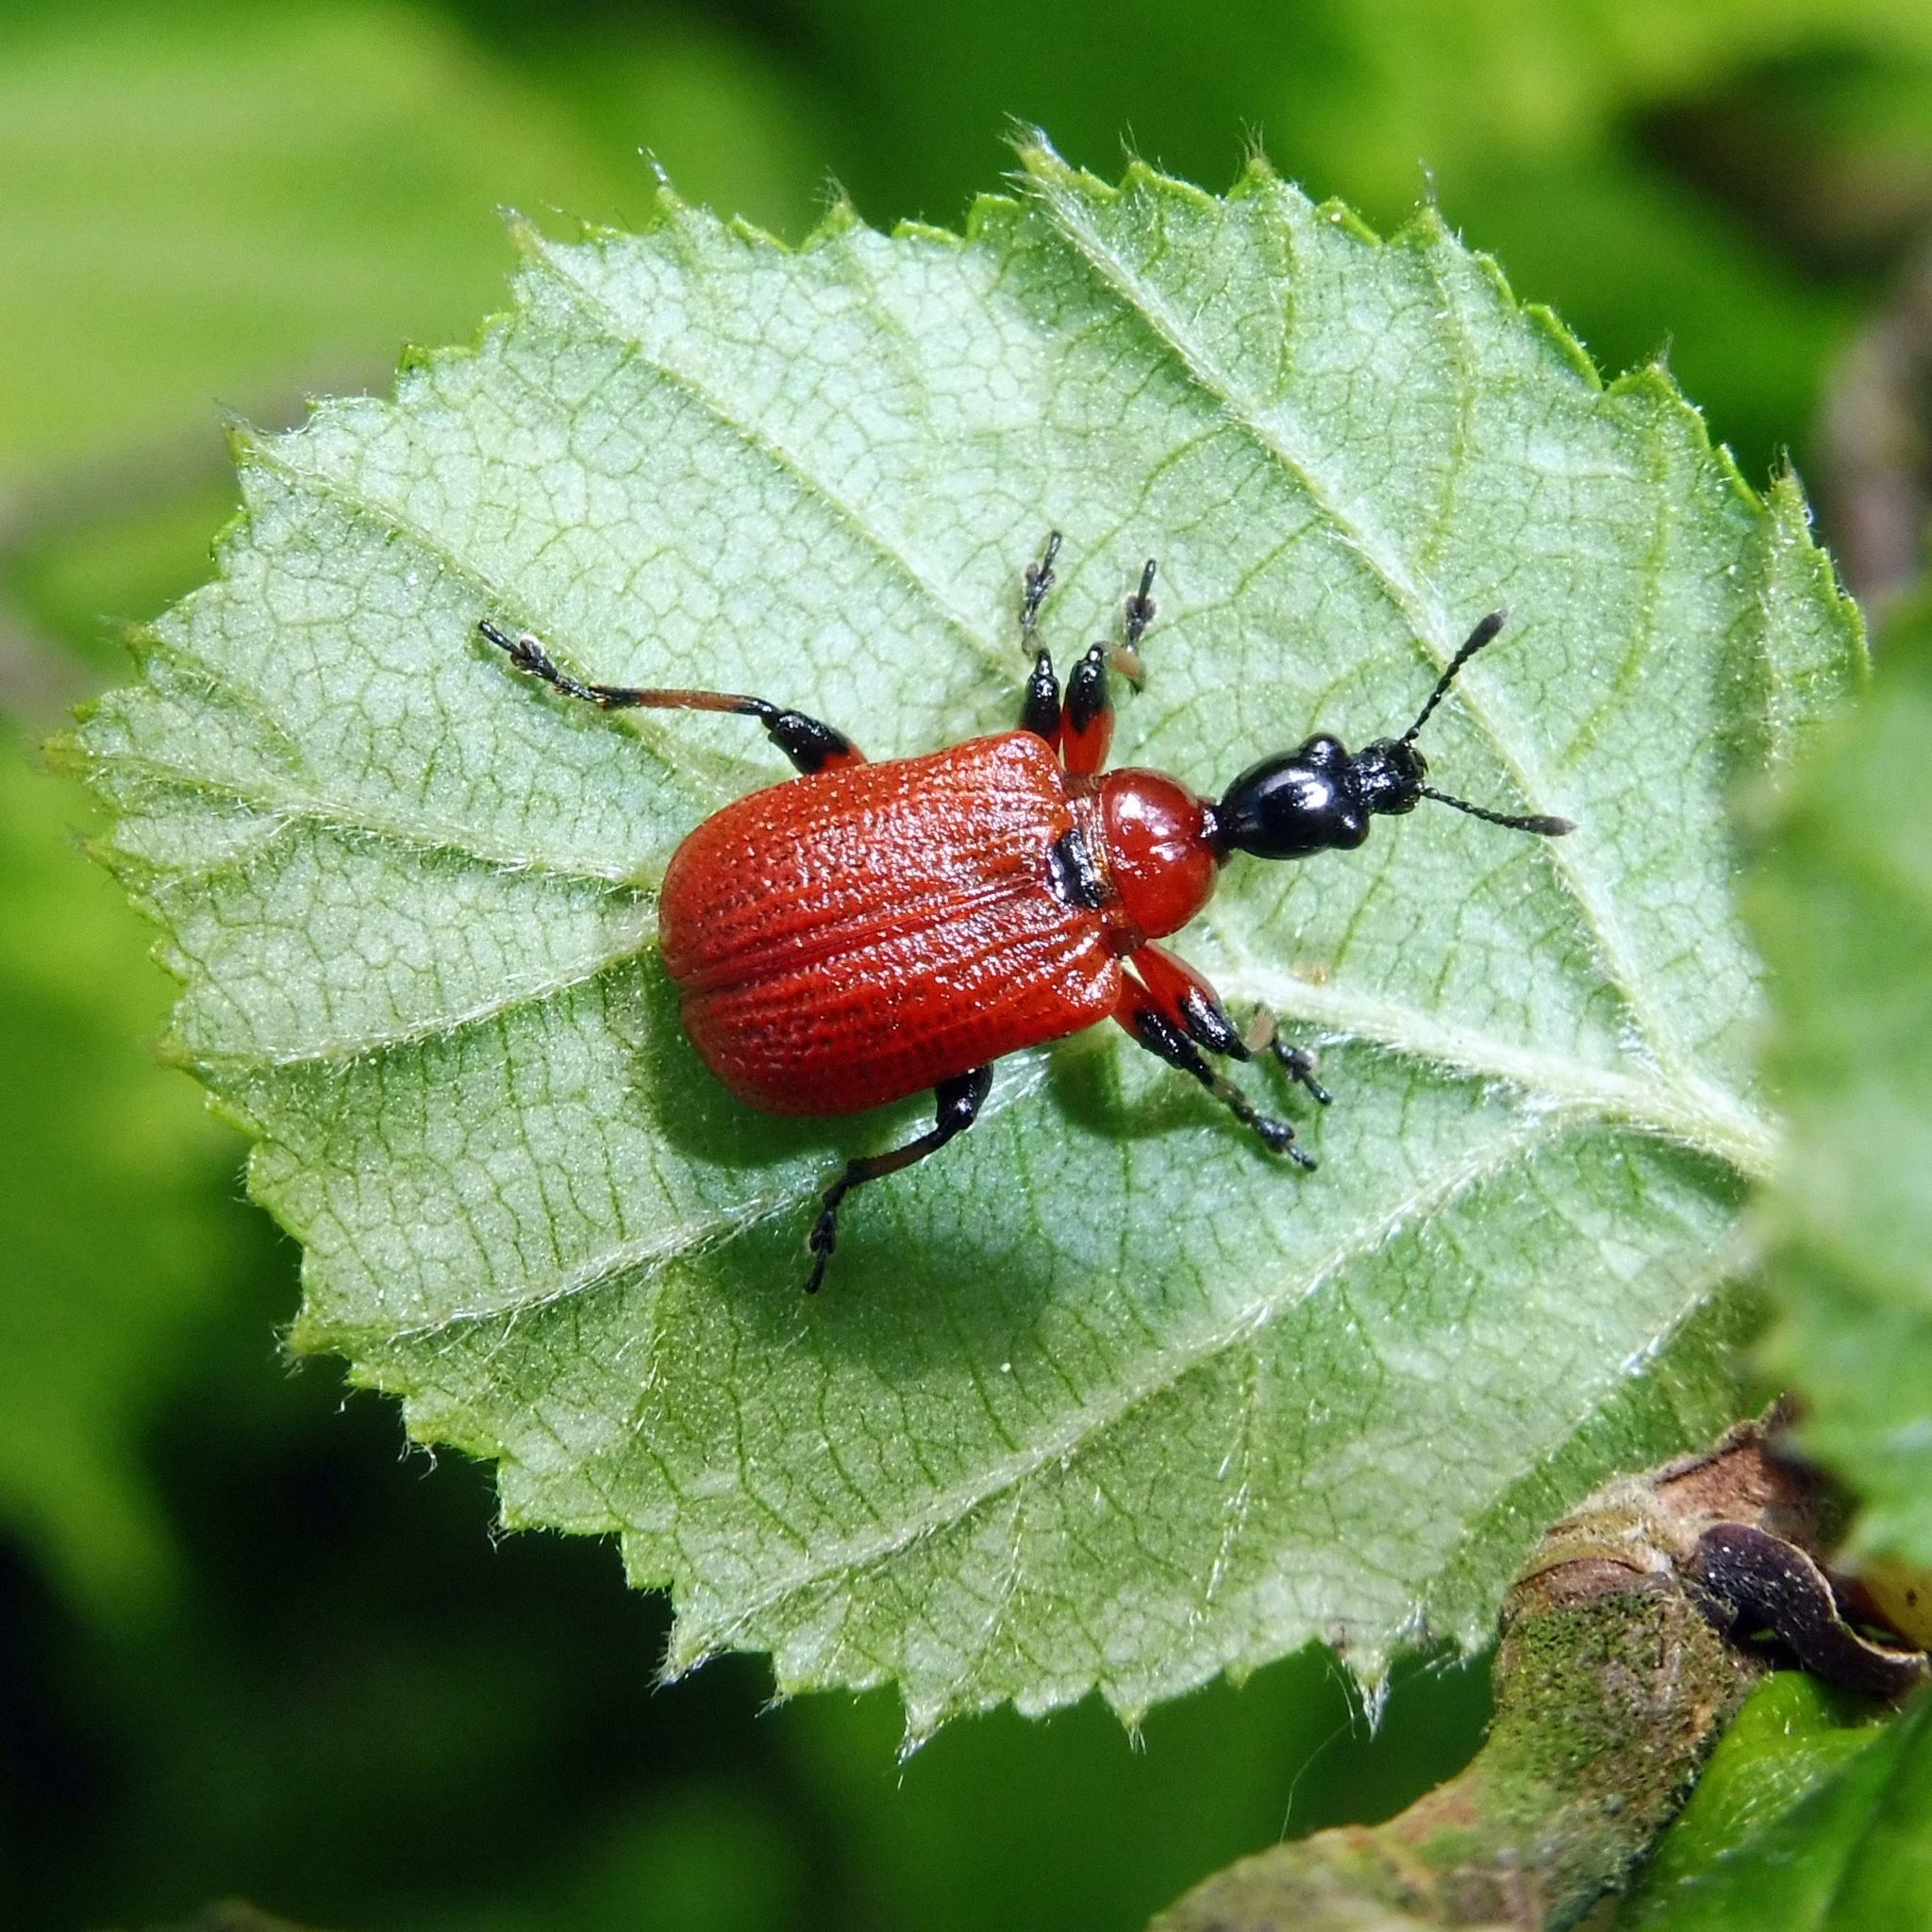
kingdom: Animalia
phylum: Arthropoda
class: Insecta
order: Coleoptera
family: Attelabidae
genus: Apoderus
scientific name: Apoderus coryli
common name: Hazel leaf roller
